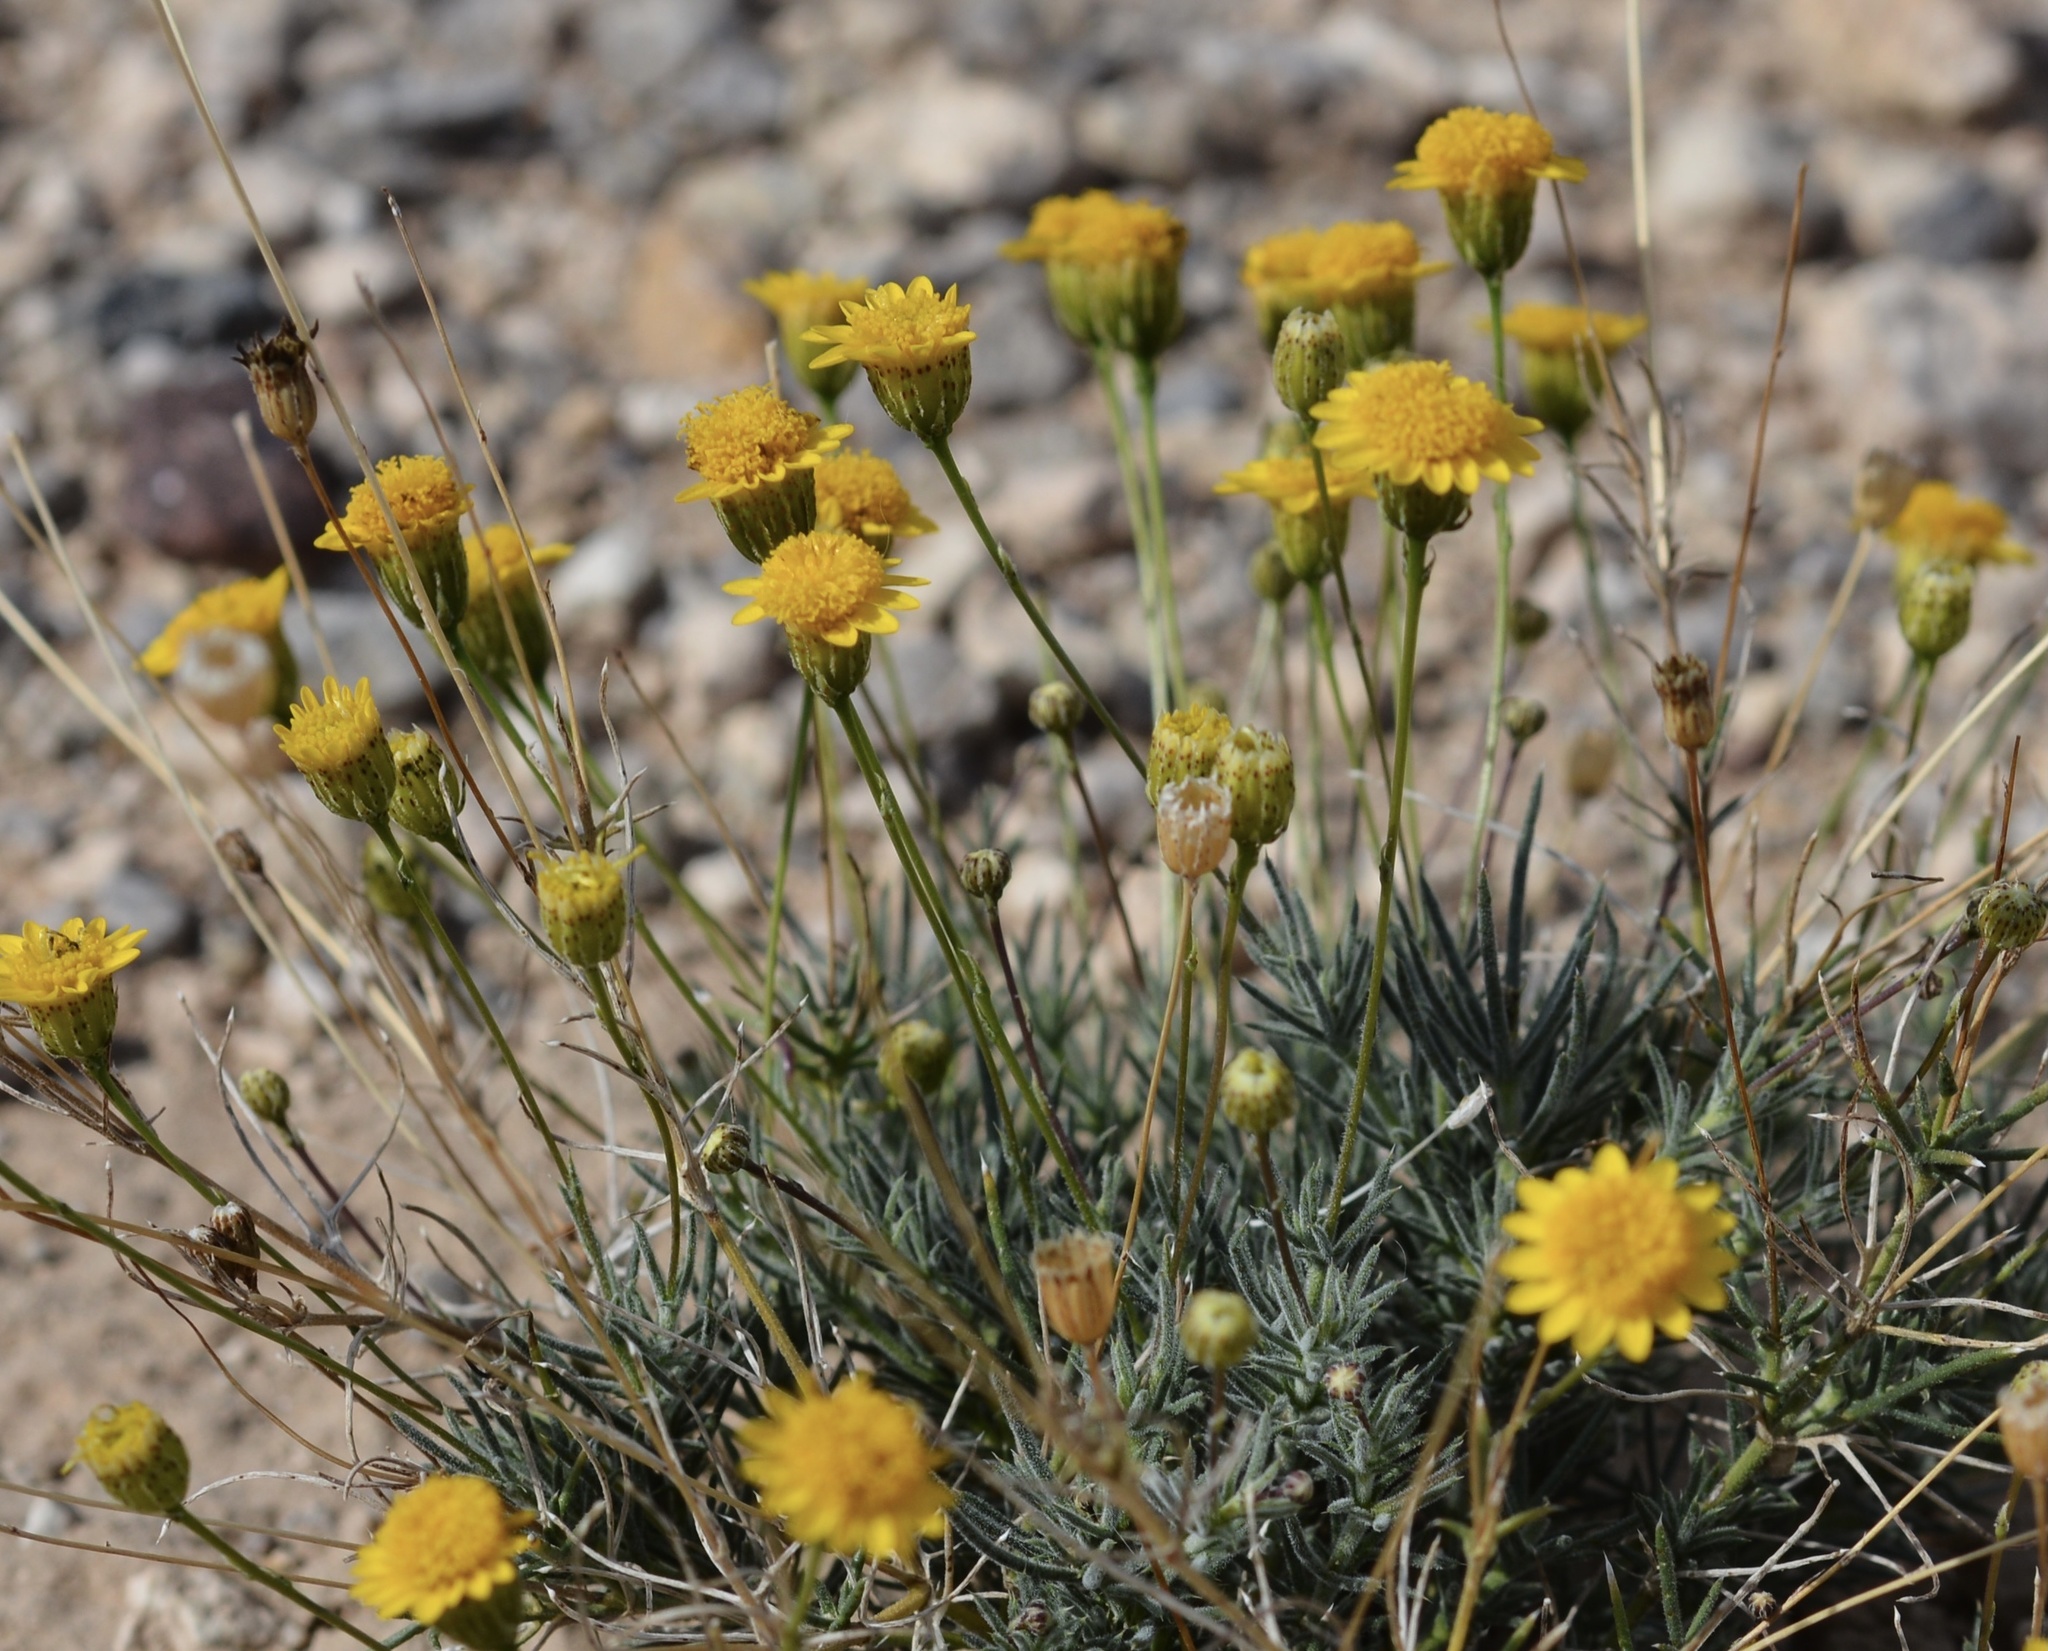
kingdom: Plantae
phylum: Tracheophyta
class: Magnoliopsida
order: Asterales
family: Asteraceae
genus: Thymophylla
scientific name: Thymophylla pentachaeta
